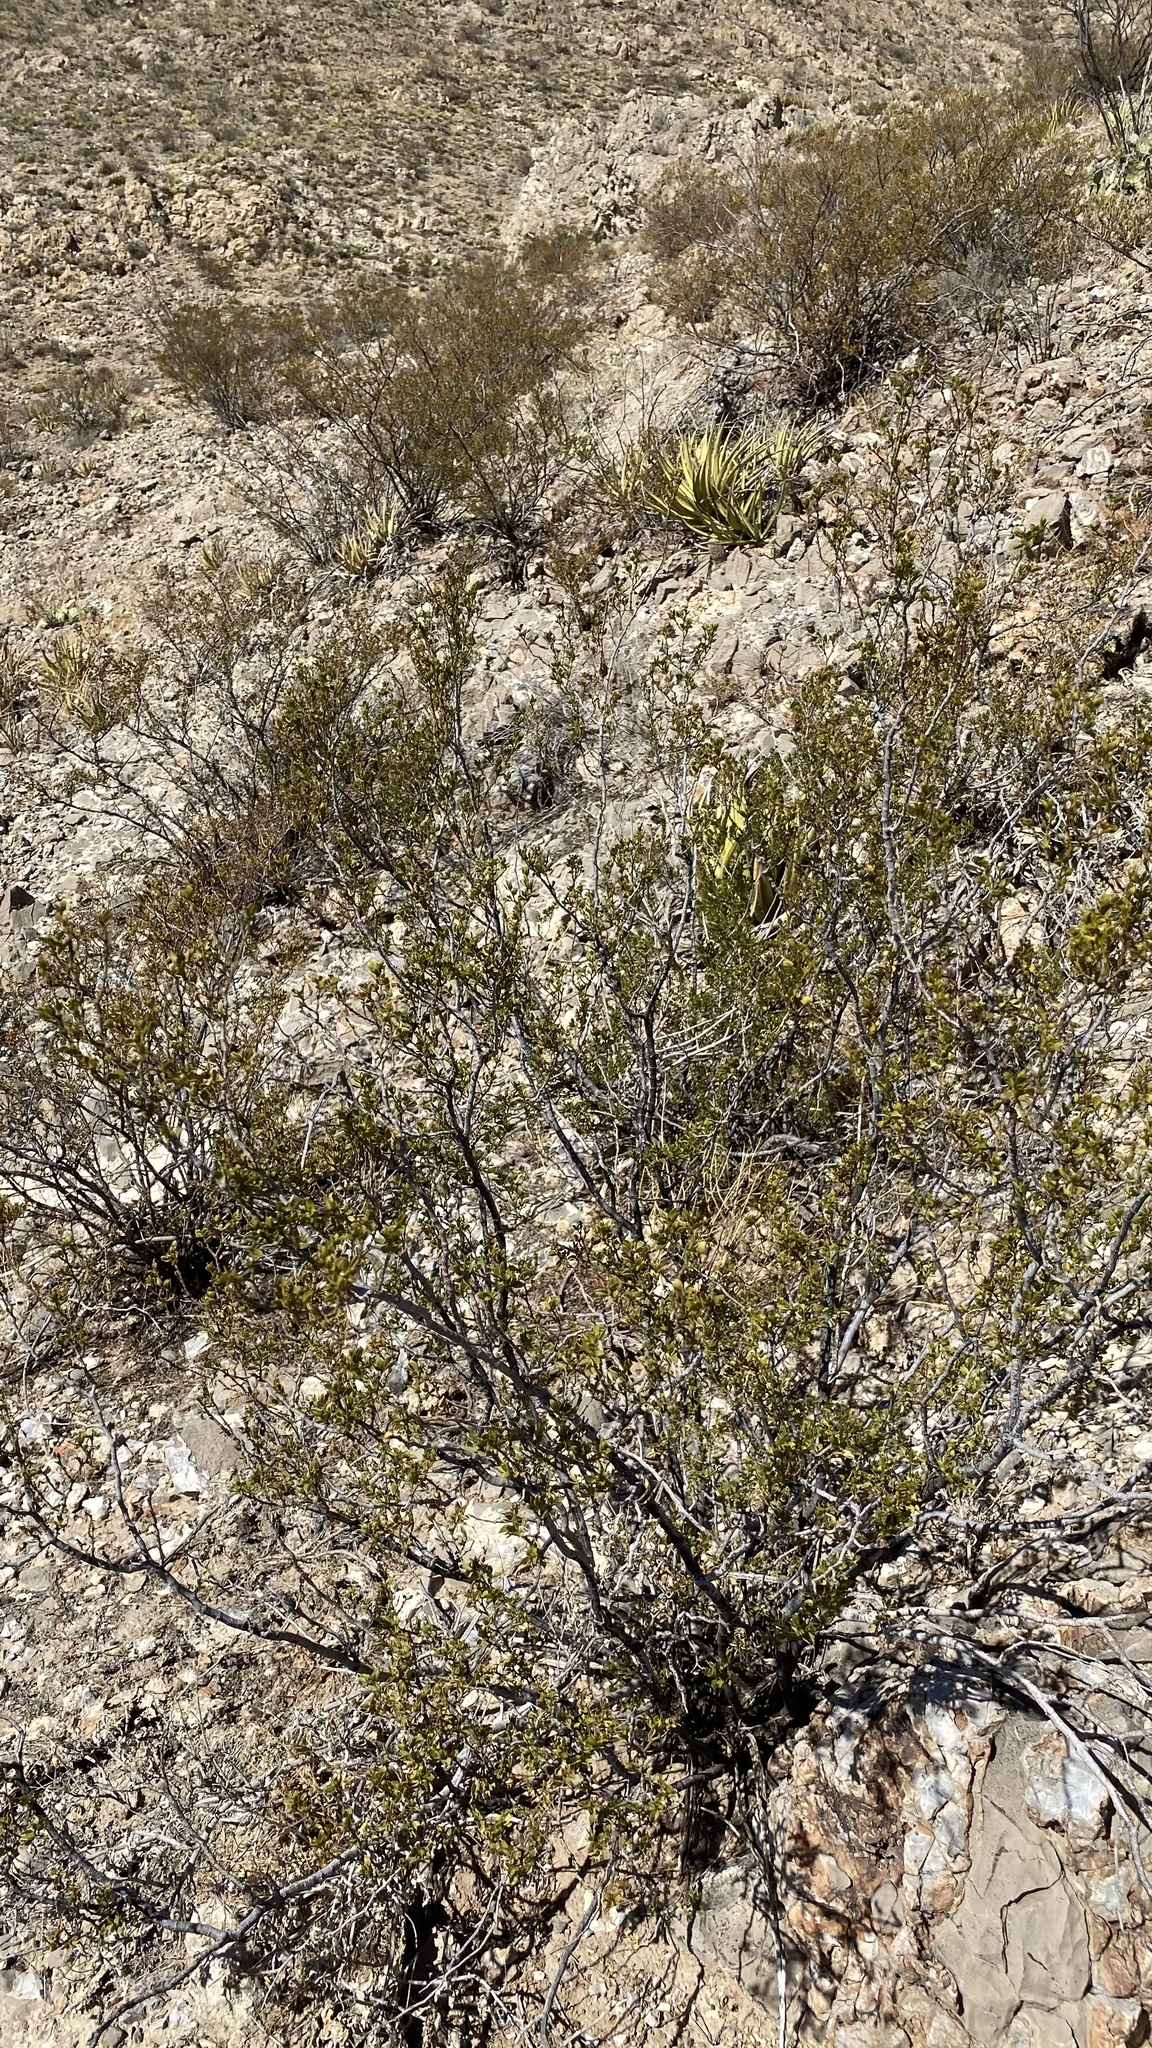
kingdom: Plantae
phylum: Tracheophyta
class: Magnoliopsida
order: Zygophyllales
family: Zygophyllaceae
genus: Larrea
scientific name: Larrea tridentata
